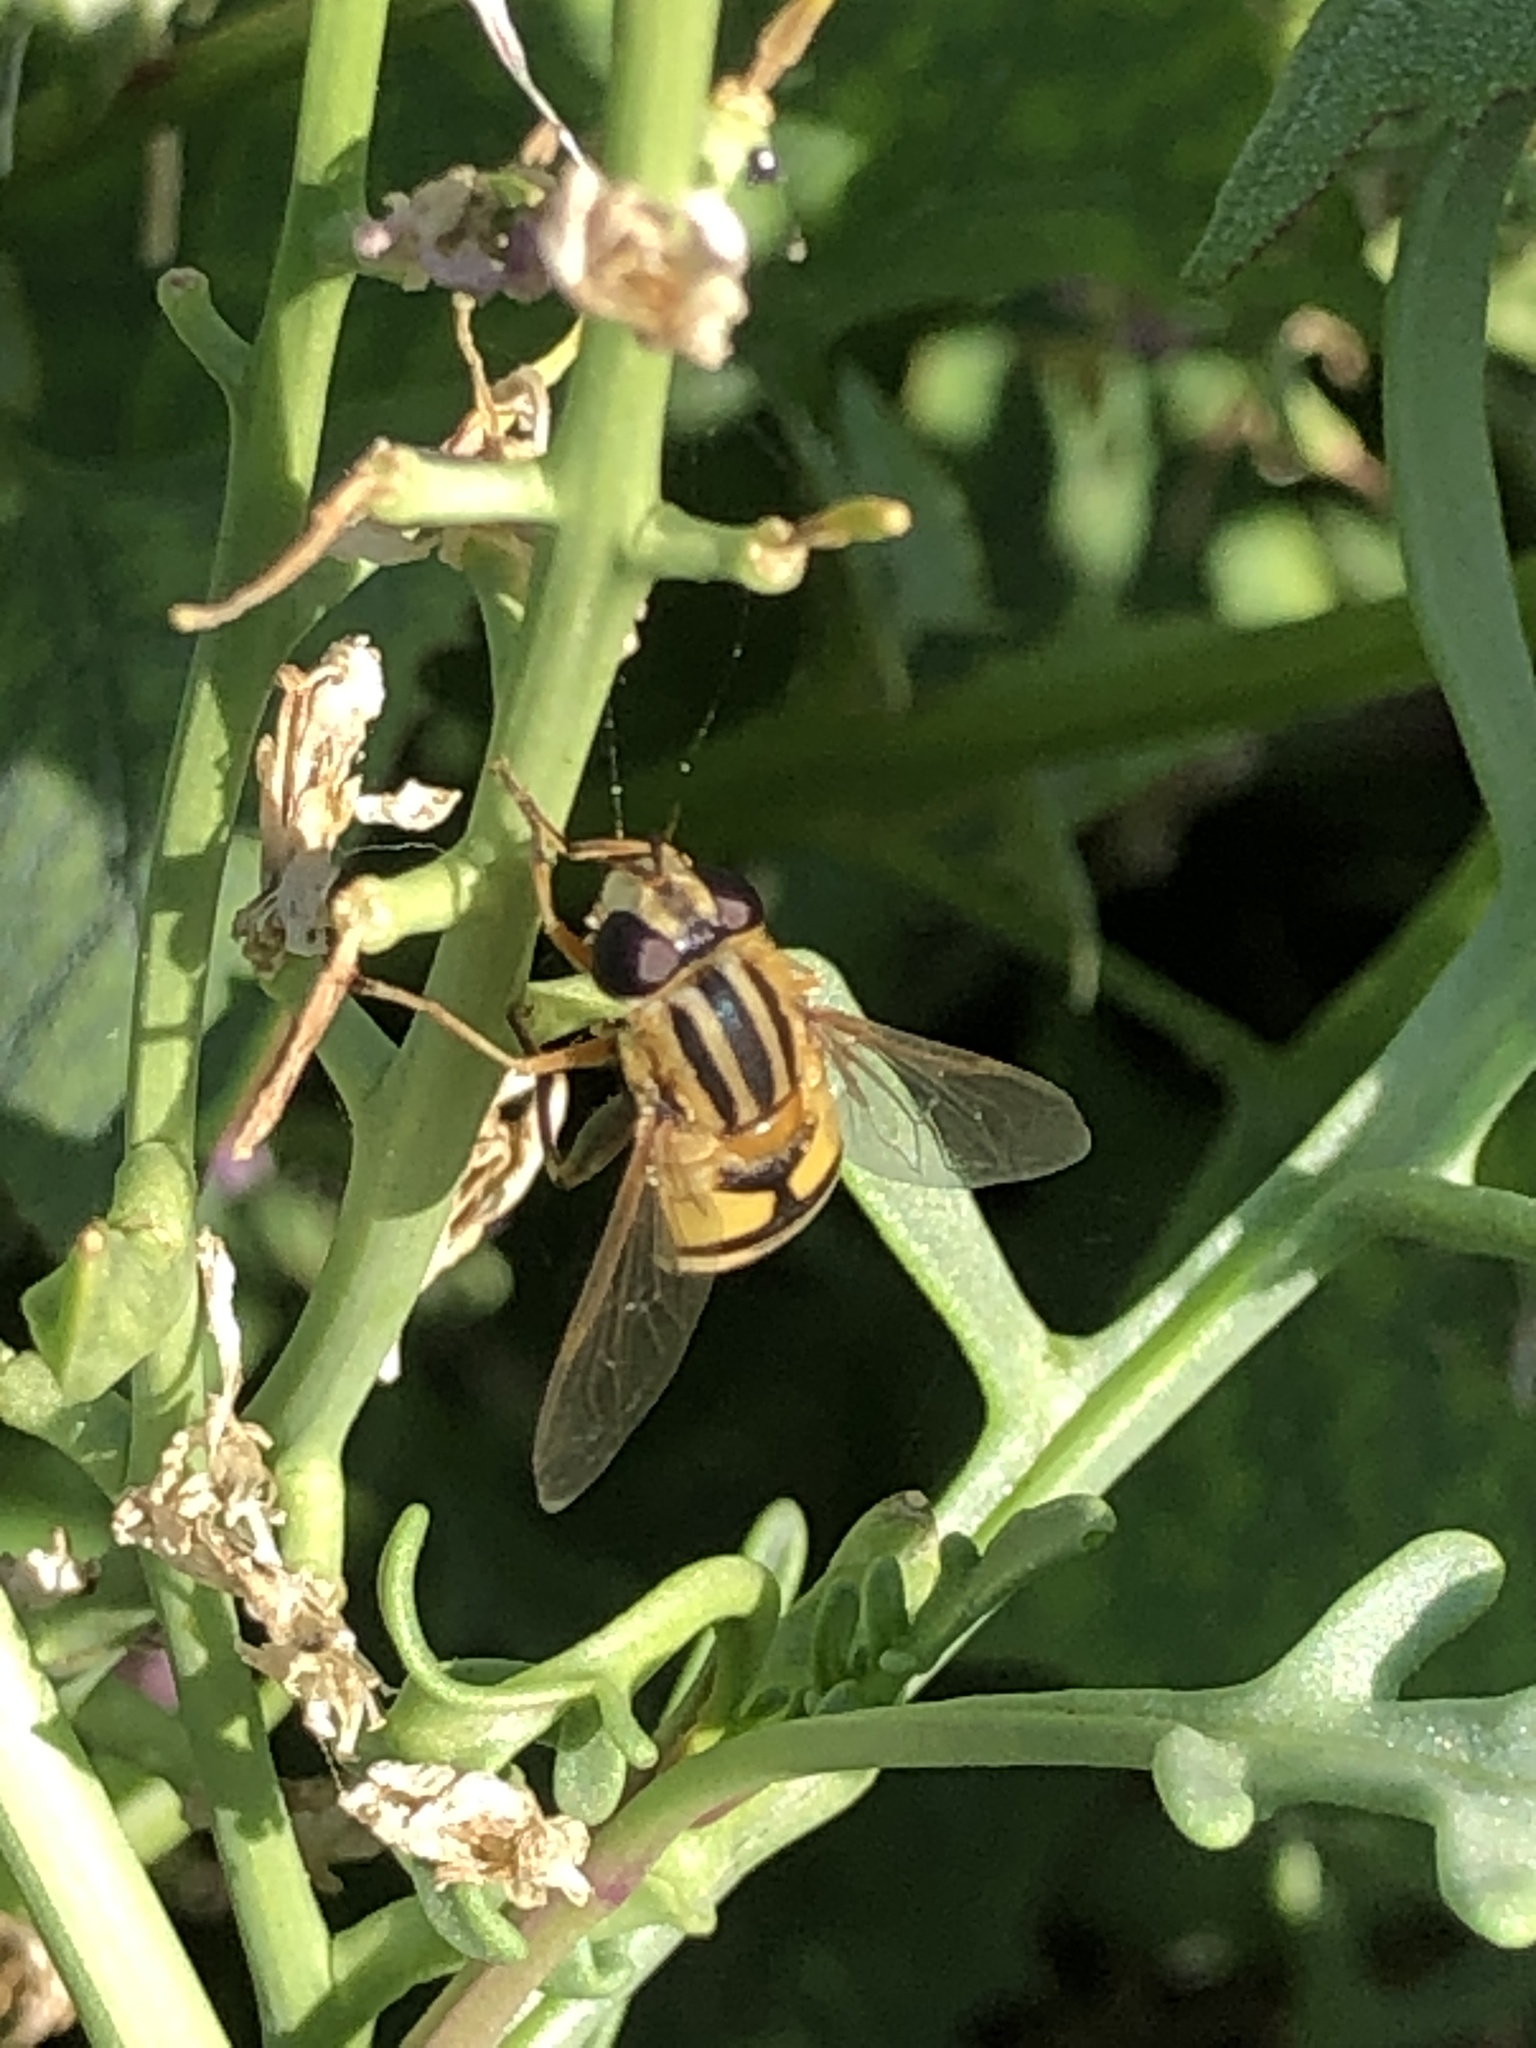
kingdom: Animalia
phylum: Arthropoda
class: Insecta
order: Diptera
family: Syrphidae
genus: Helophilus
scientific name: Helophilus latifrons
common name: Broad-headed marsh fly
